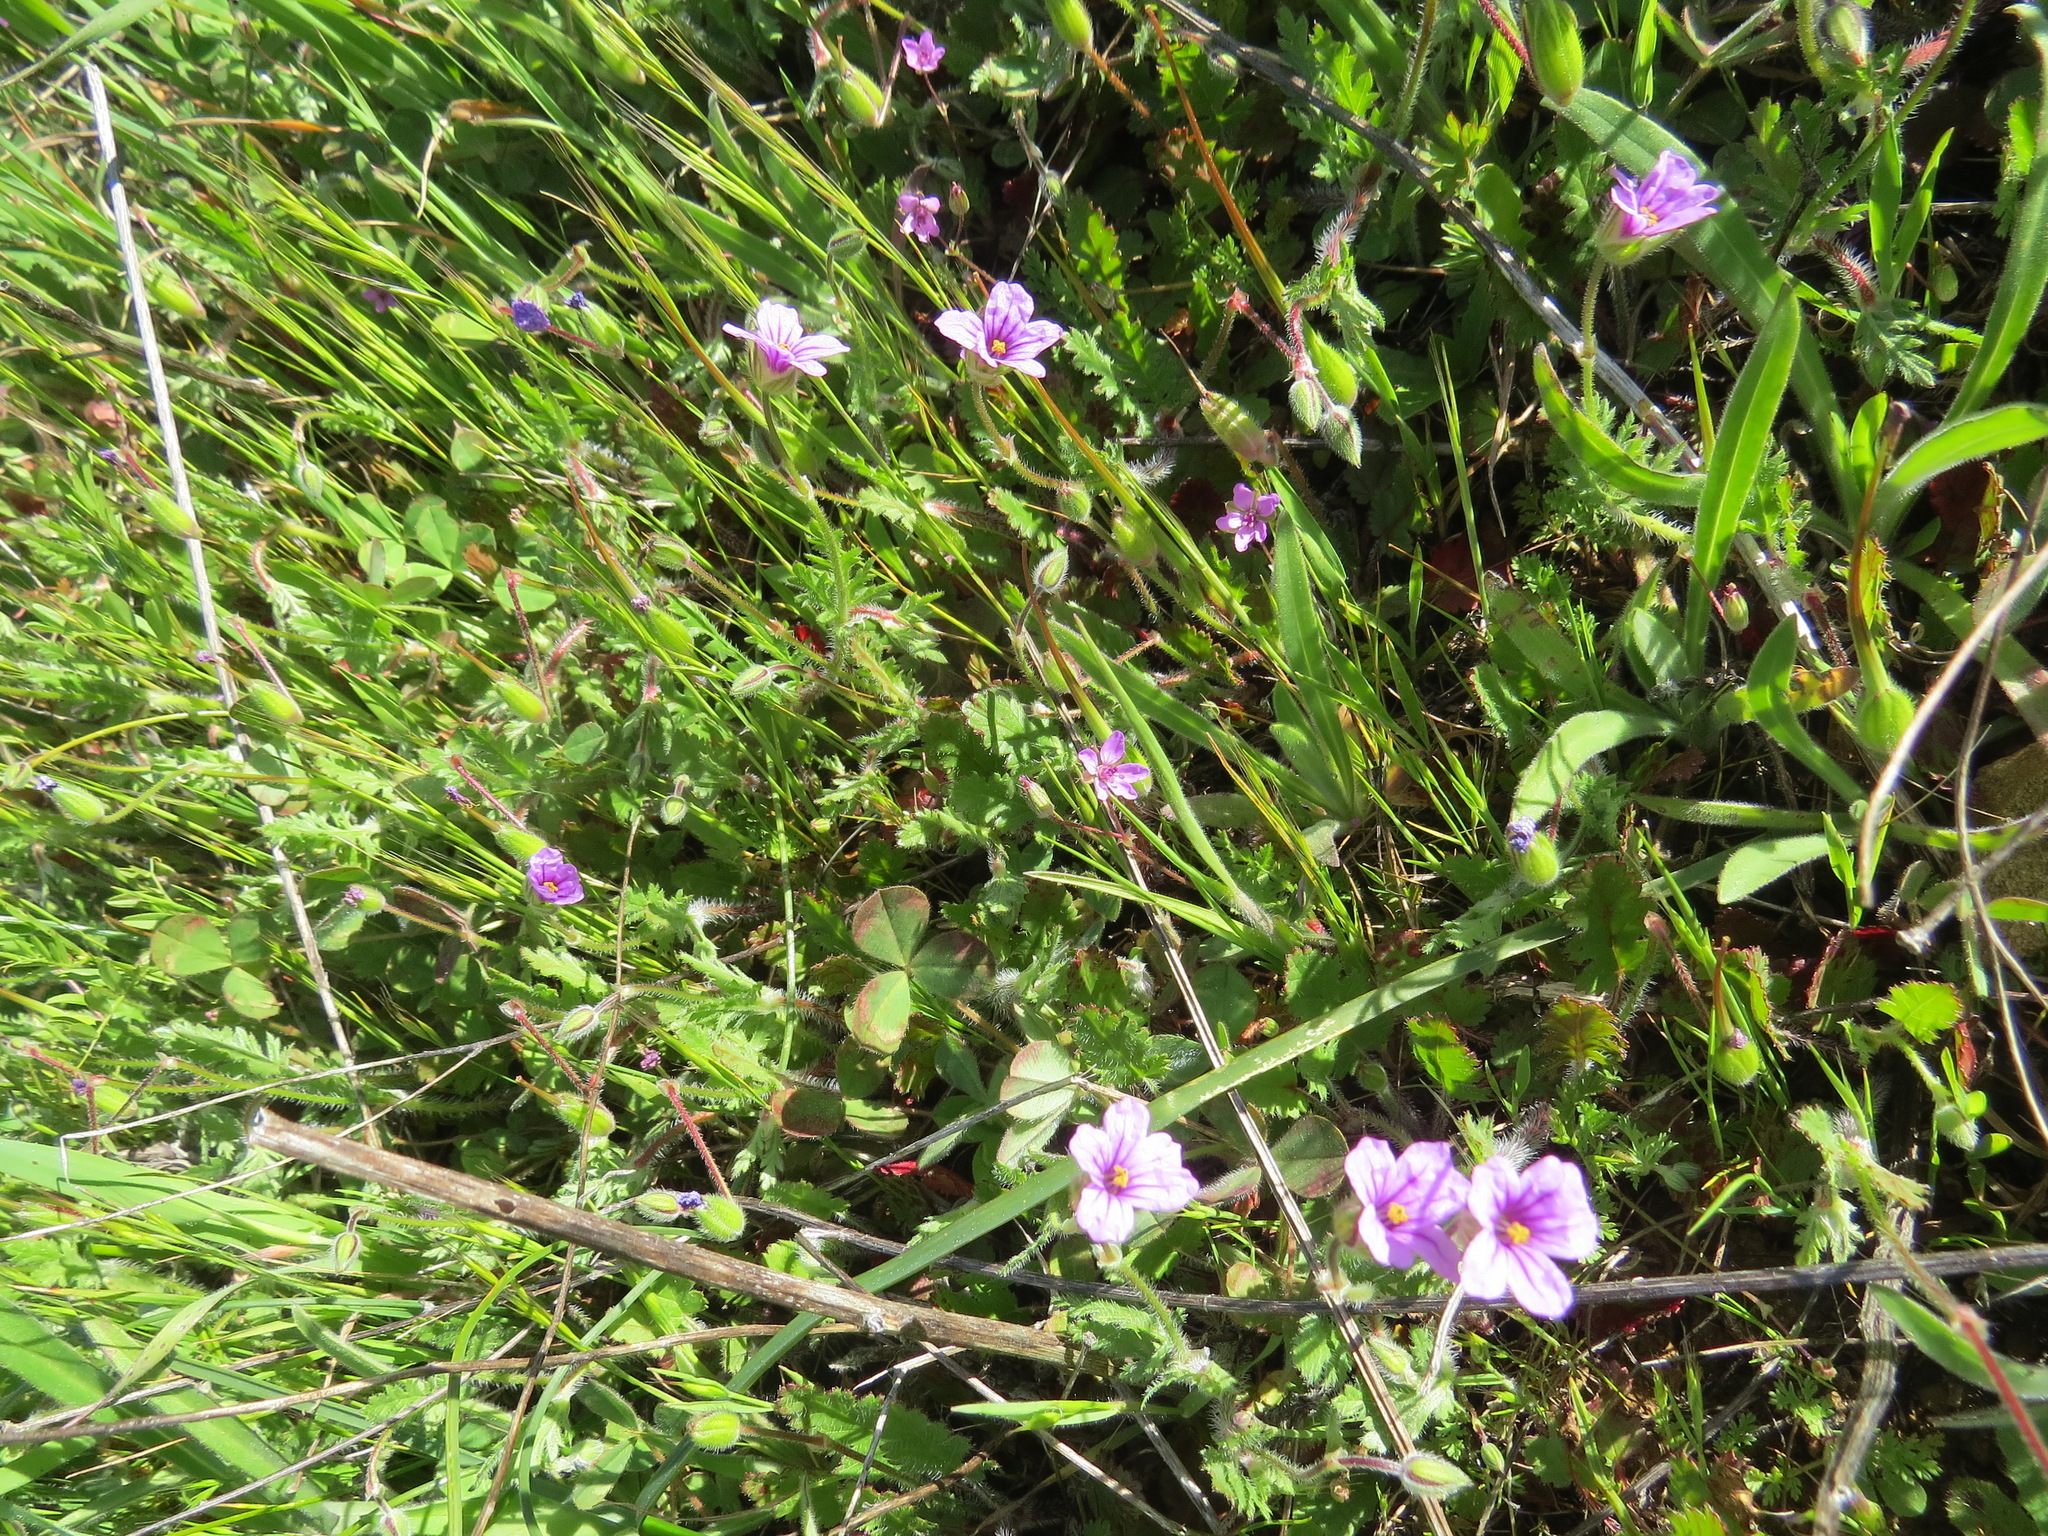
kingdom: Plantae
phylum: Tracheophyta
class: Magnoliopsida
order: Geraniales
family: Geraniaceae
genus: Erodium
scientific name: Erodium botrys
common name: Mediterranean stork's-bill
